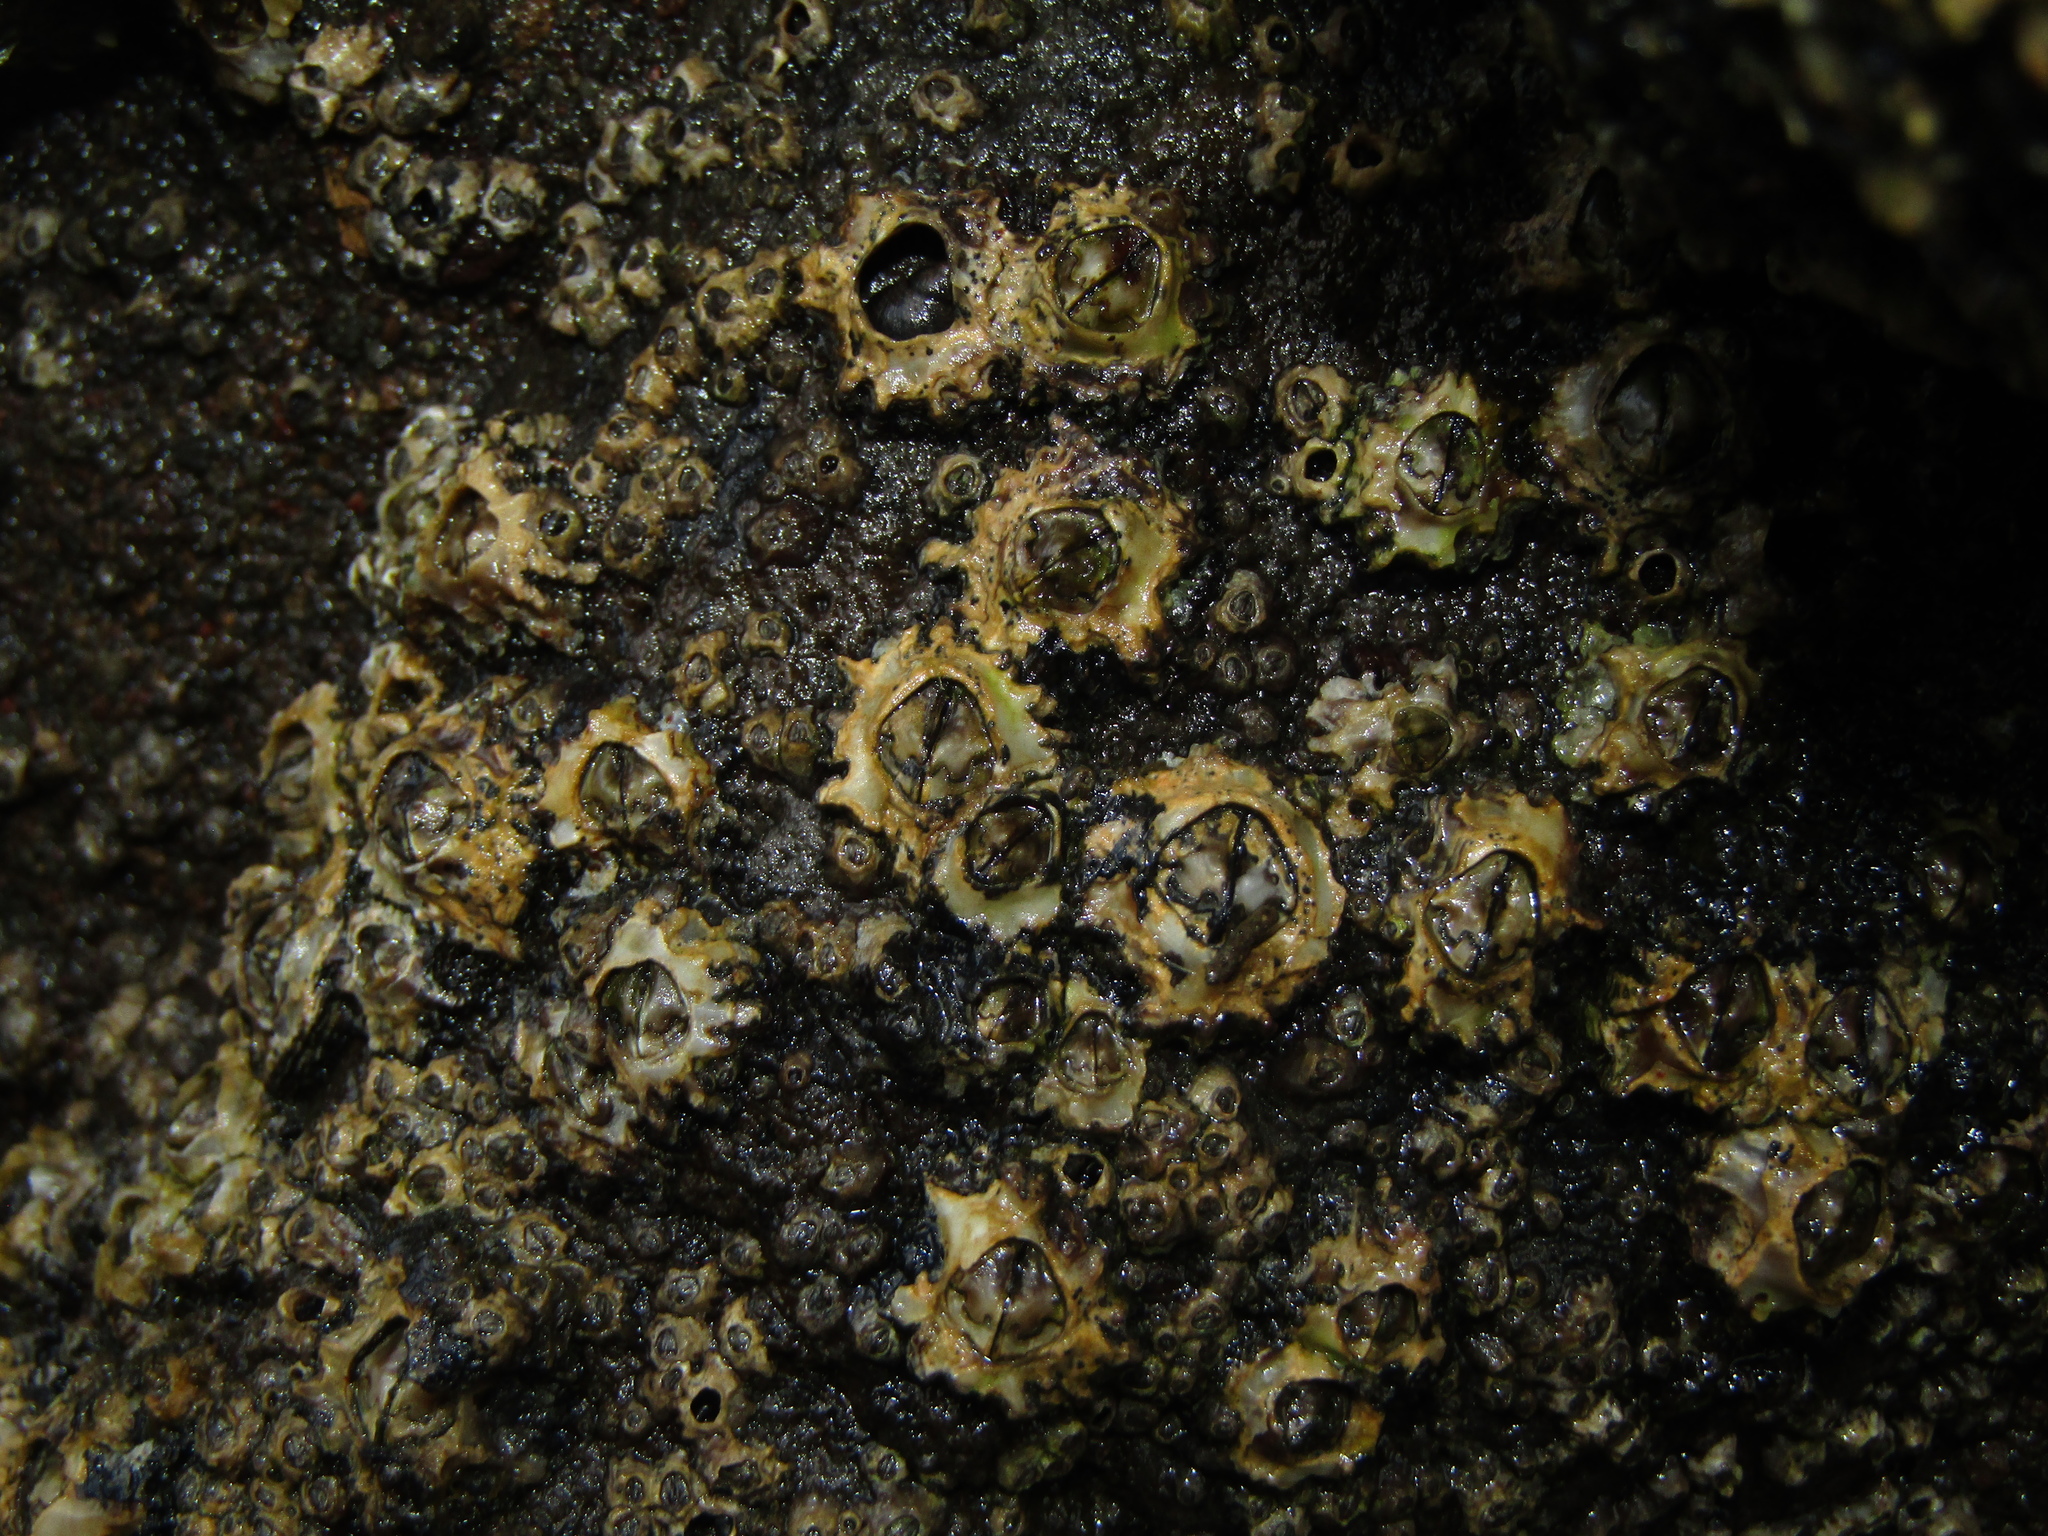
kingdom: Animalia
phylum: Arthropoda
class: Maxillopoda
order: Sessilia
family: Chthamalidae
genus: Chamaesipho
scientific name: Chamaesipho brunnea
